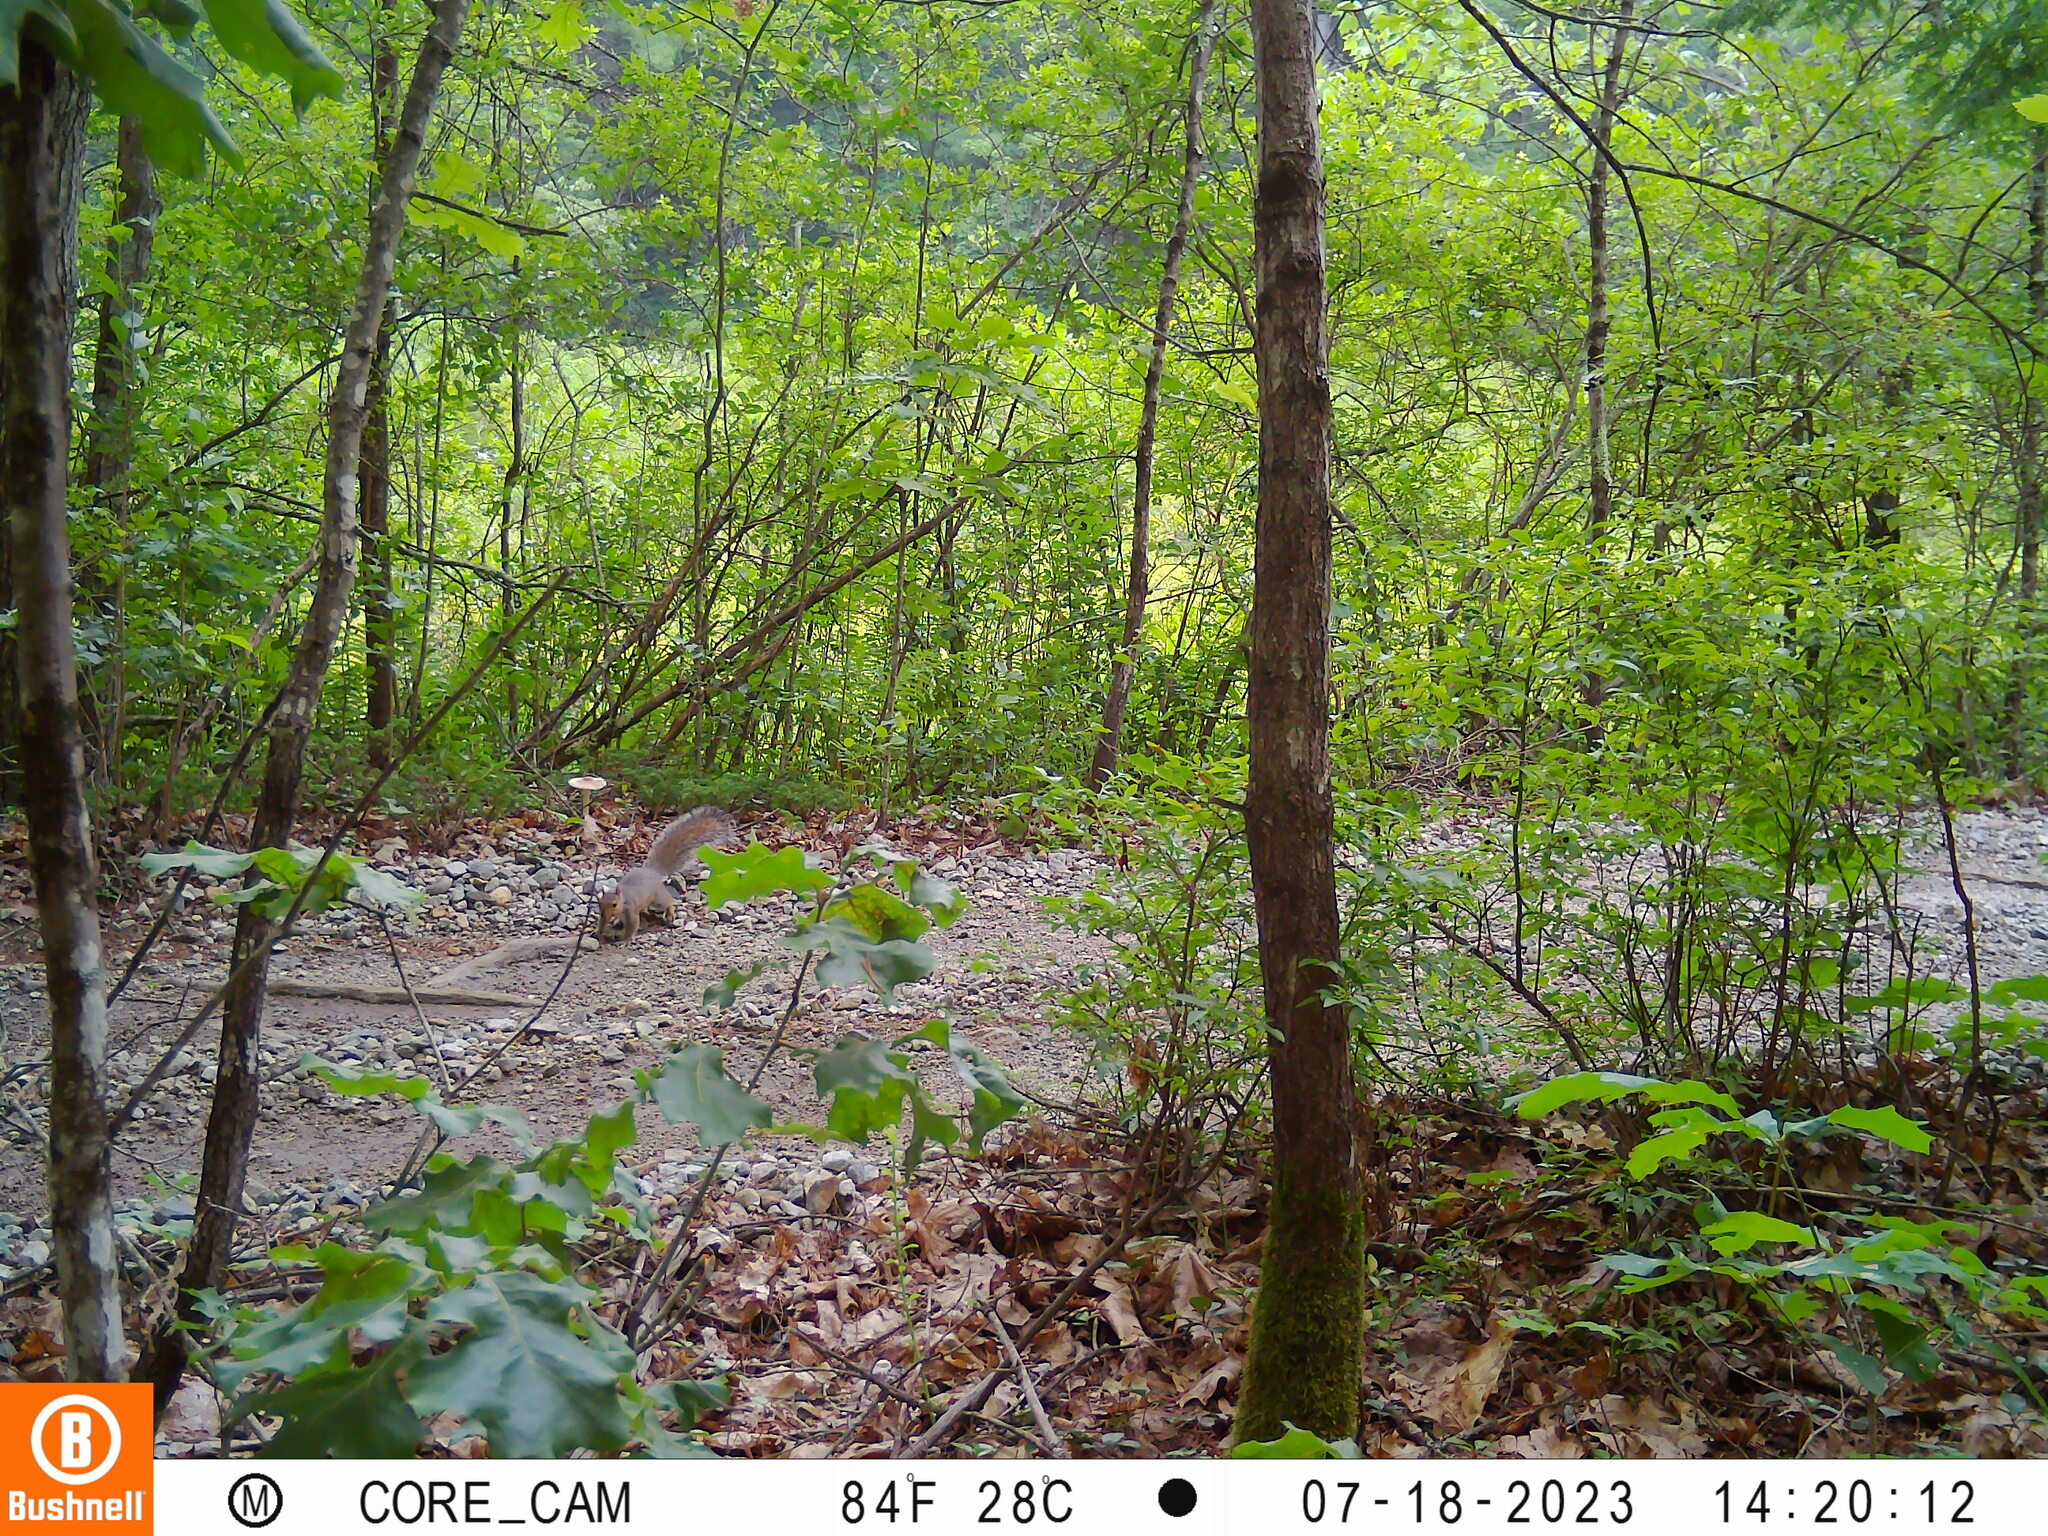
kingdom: Animalia
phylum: Chordata
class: Mammalia
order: Rodentia
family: Sciuridae
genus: Sciurus
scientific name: Sciurus carolinensis
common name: Eastern gray squirrel
